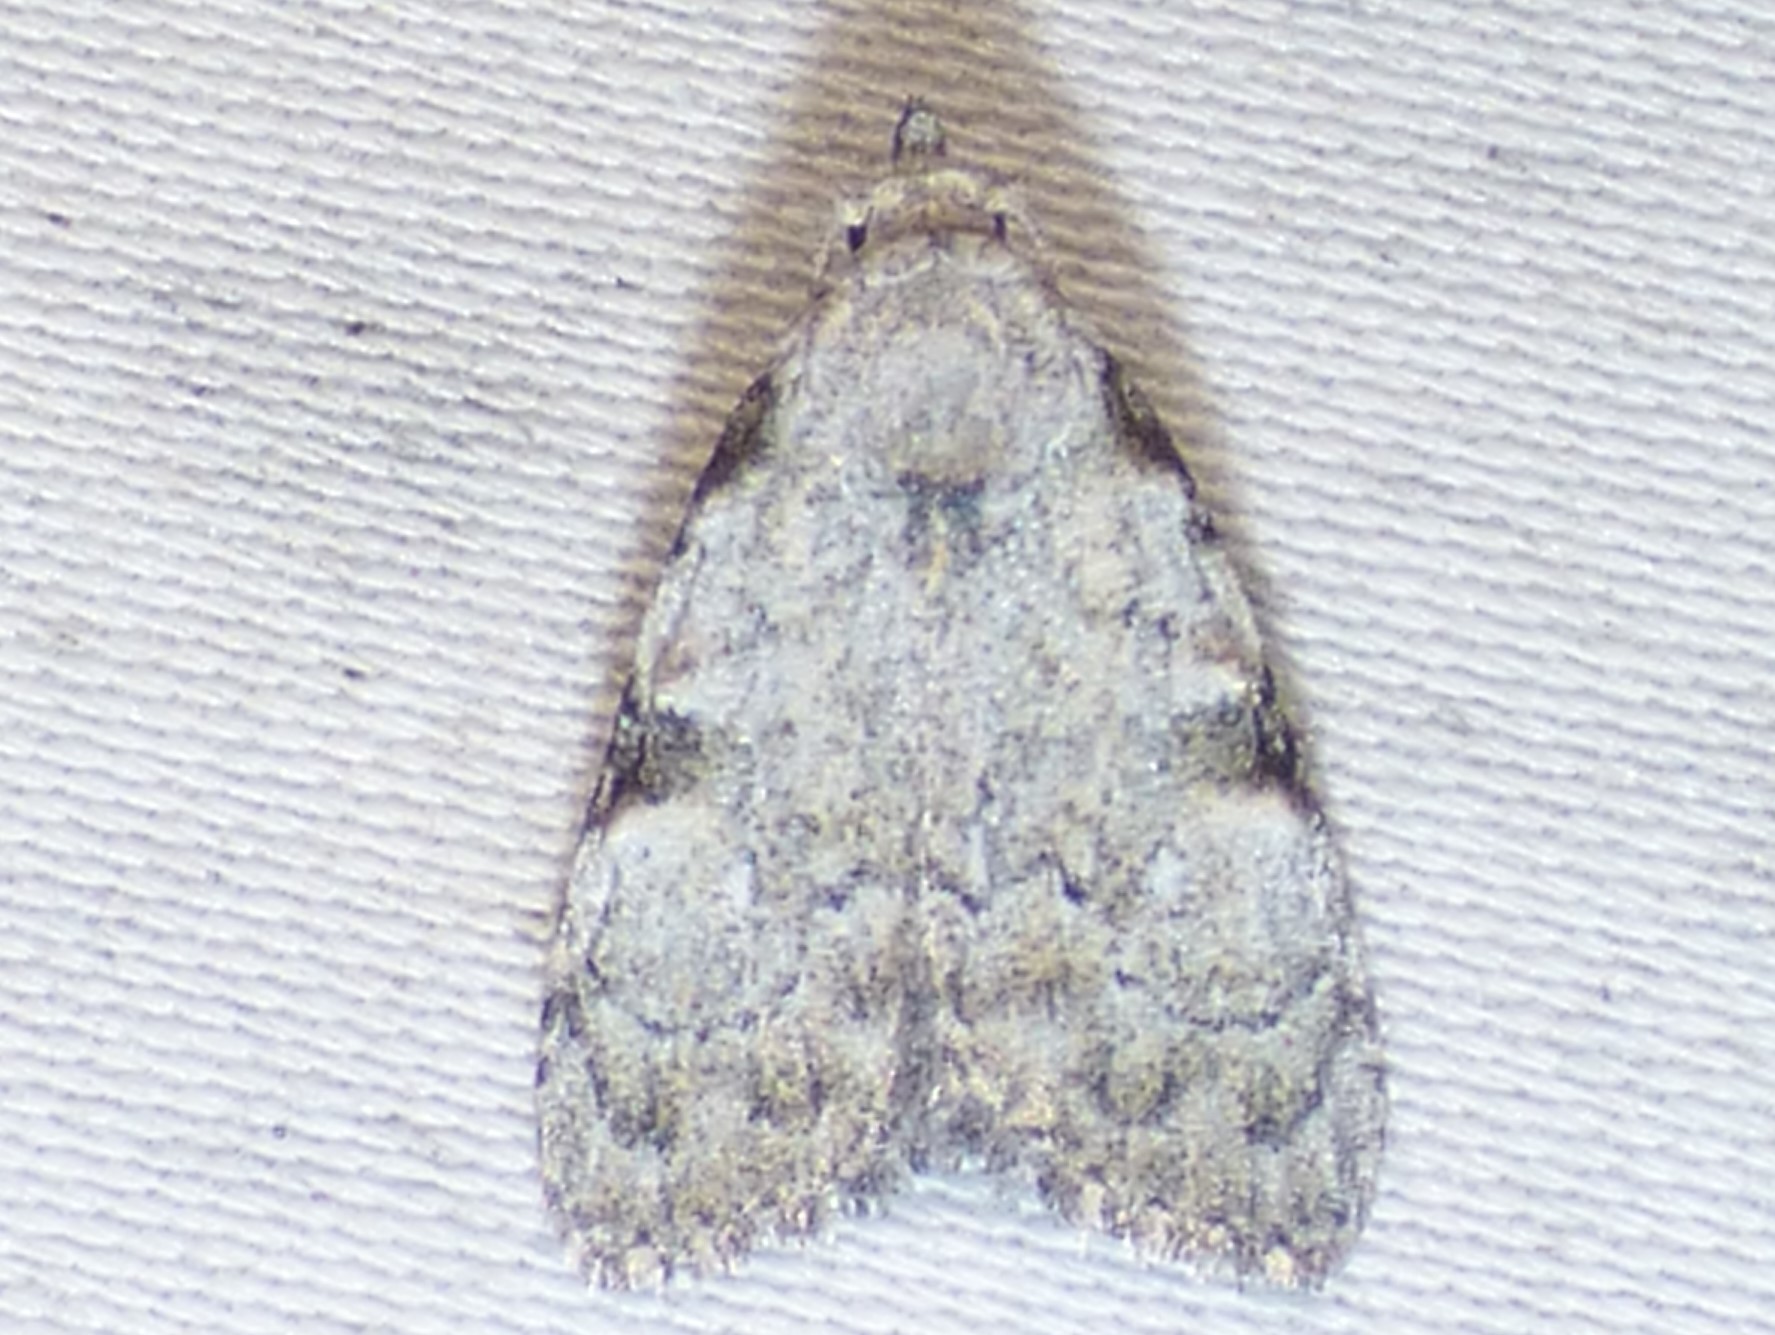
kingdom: Animalia
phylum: Arthropoda
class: Insecta
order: Lepidoptera
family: Nolidae
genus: Meganola
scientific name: Meganola minuscula
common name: Confused meganola moth
